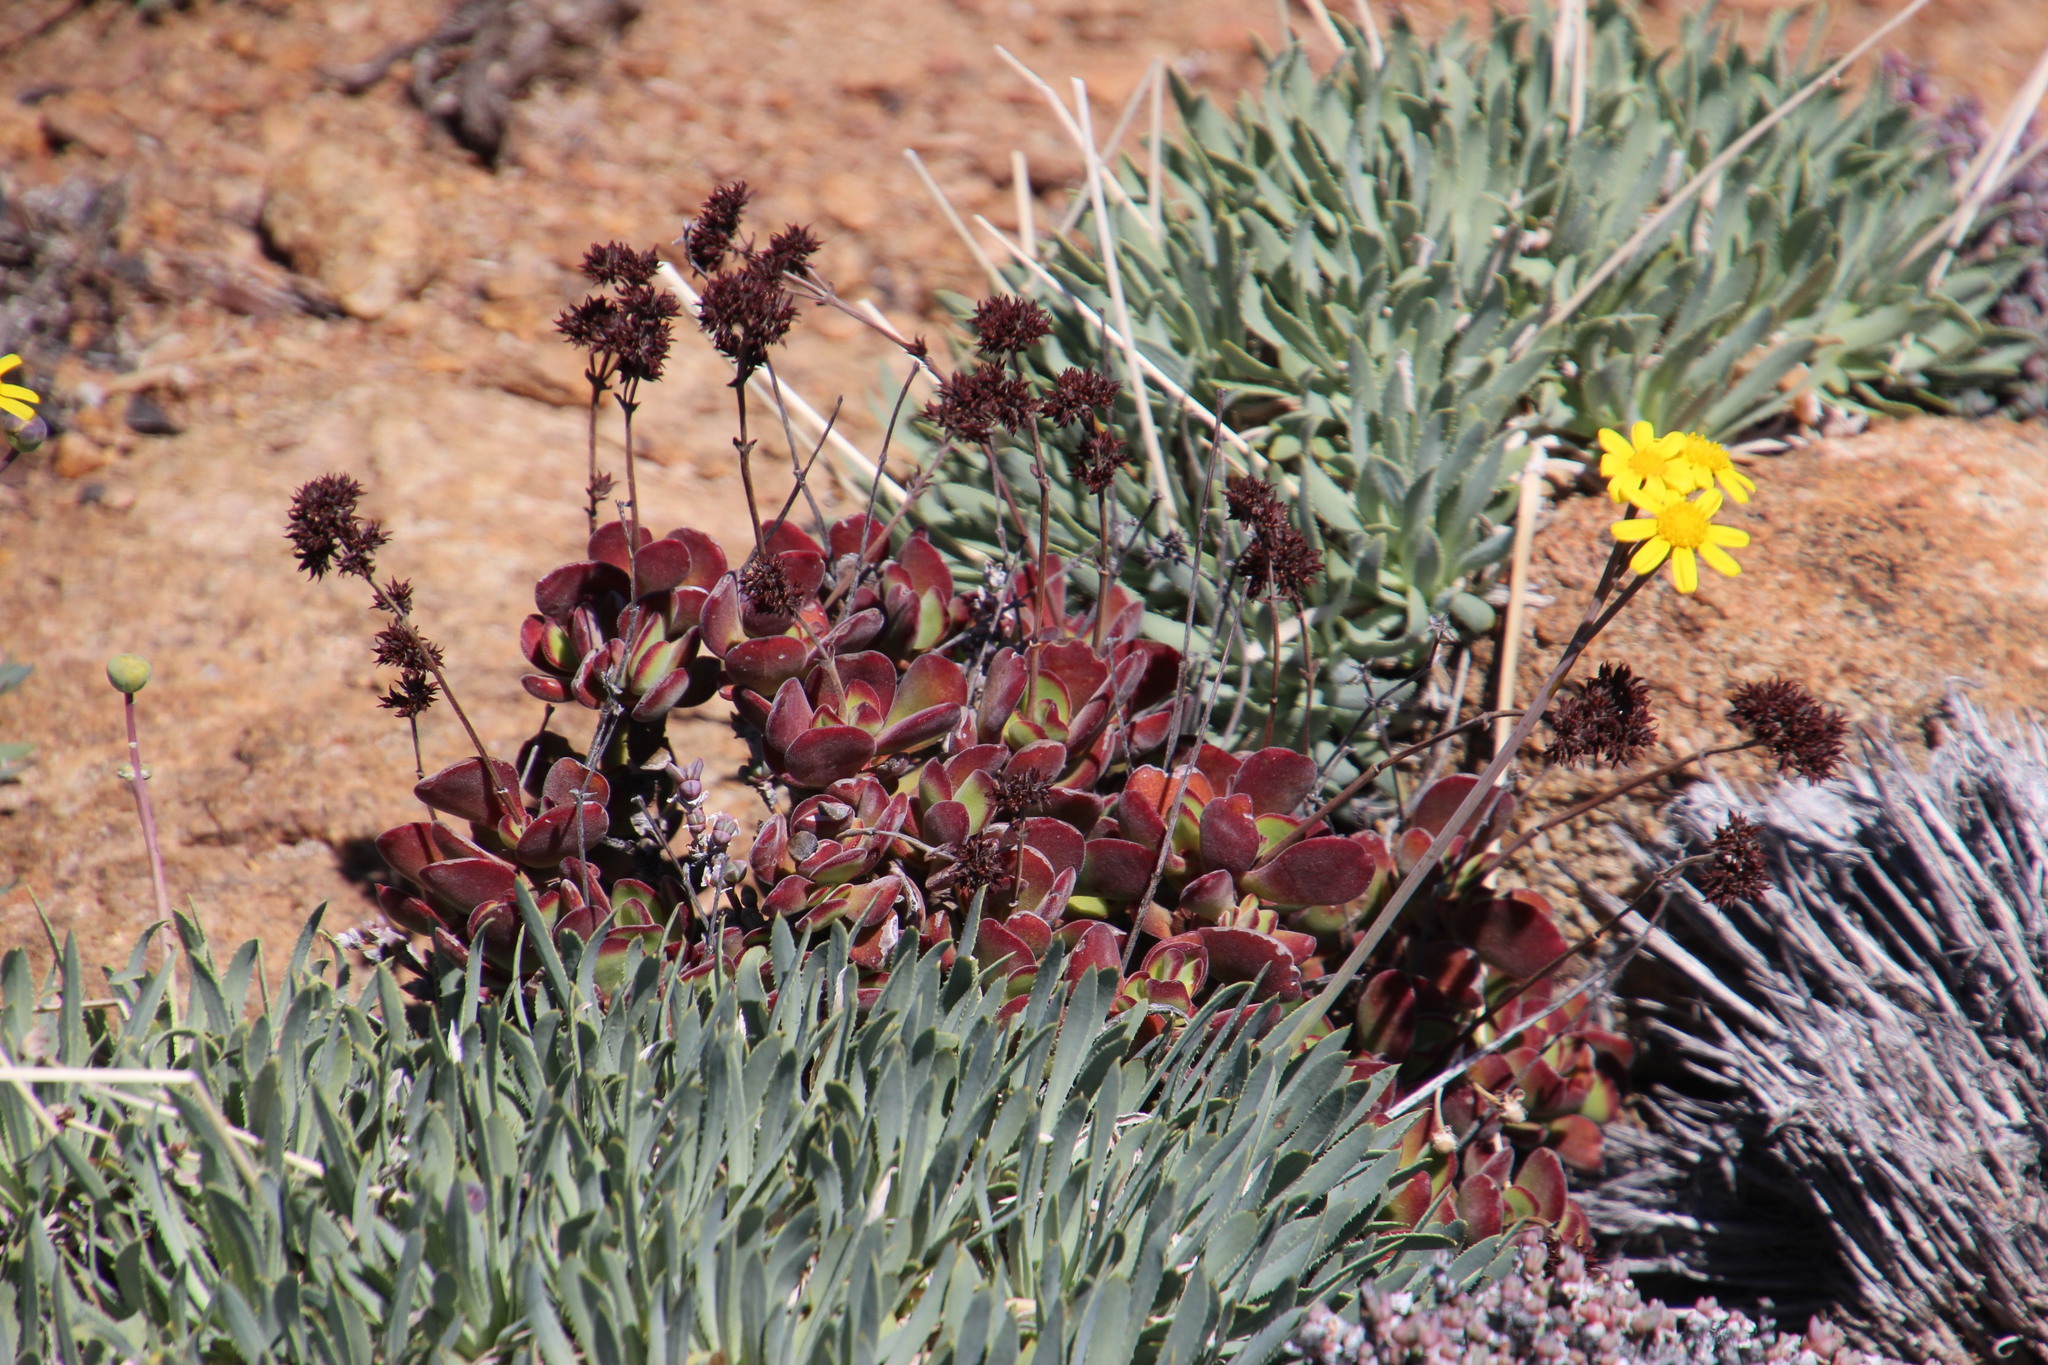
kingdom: Plantae
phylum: Tracheophyta
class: Magnoliopsida
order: Saxifragales
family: Crassulaceae
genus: Crassula
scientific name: Crassula atropurpurea
